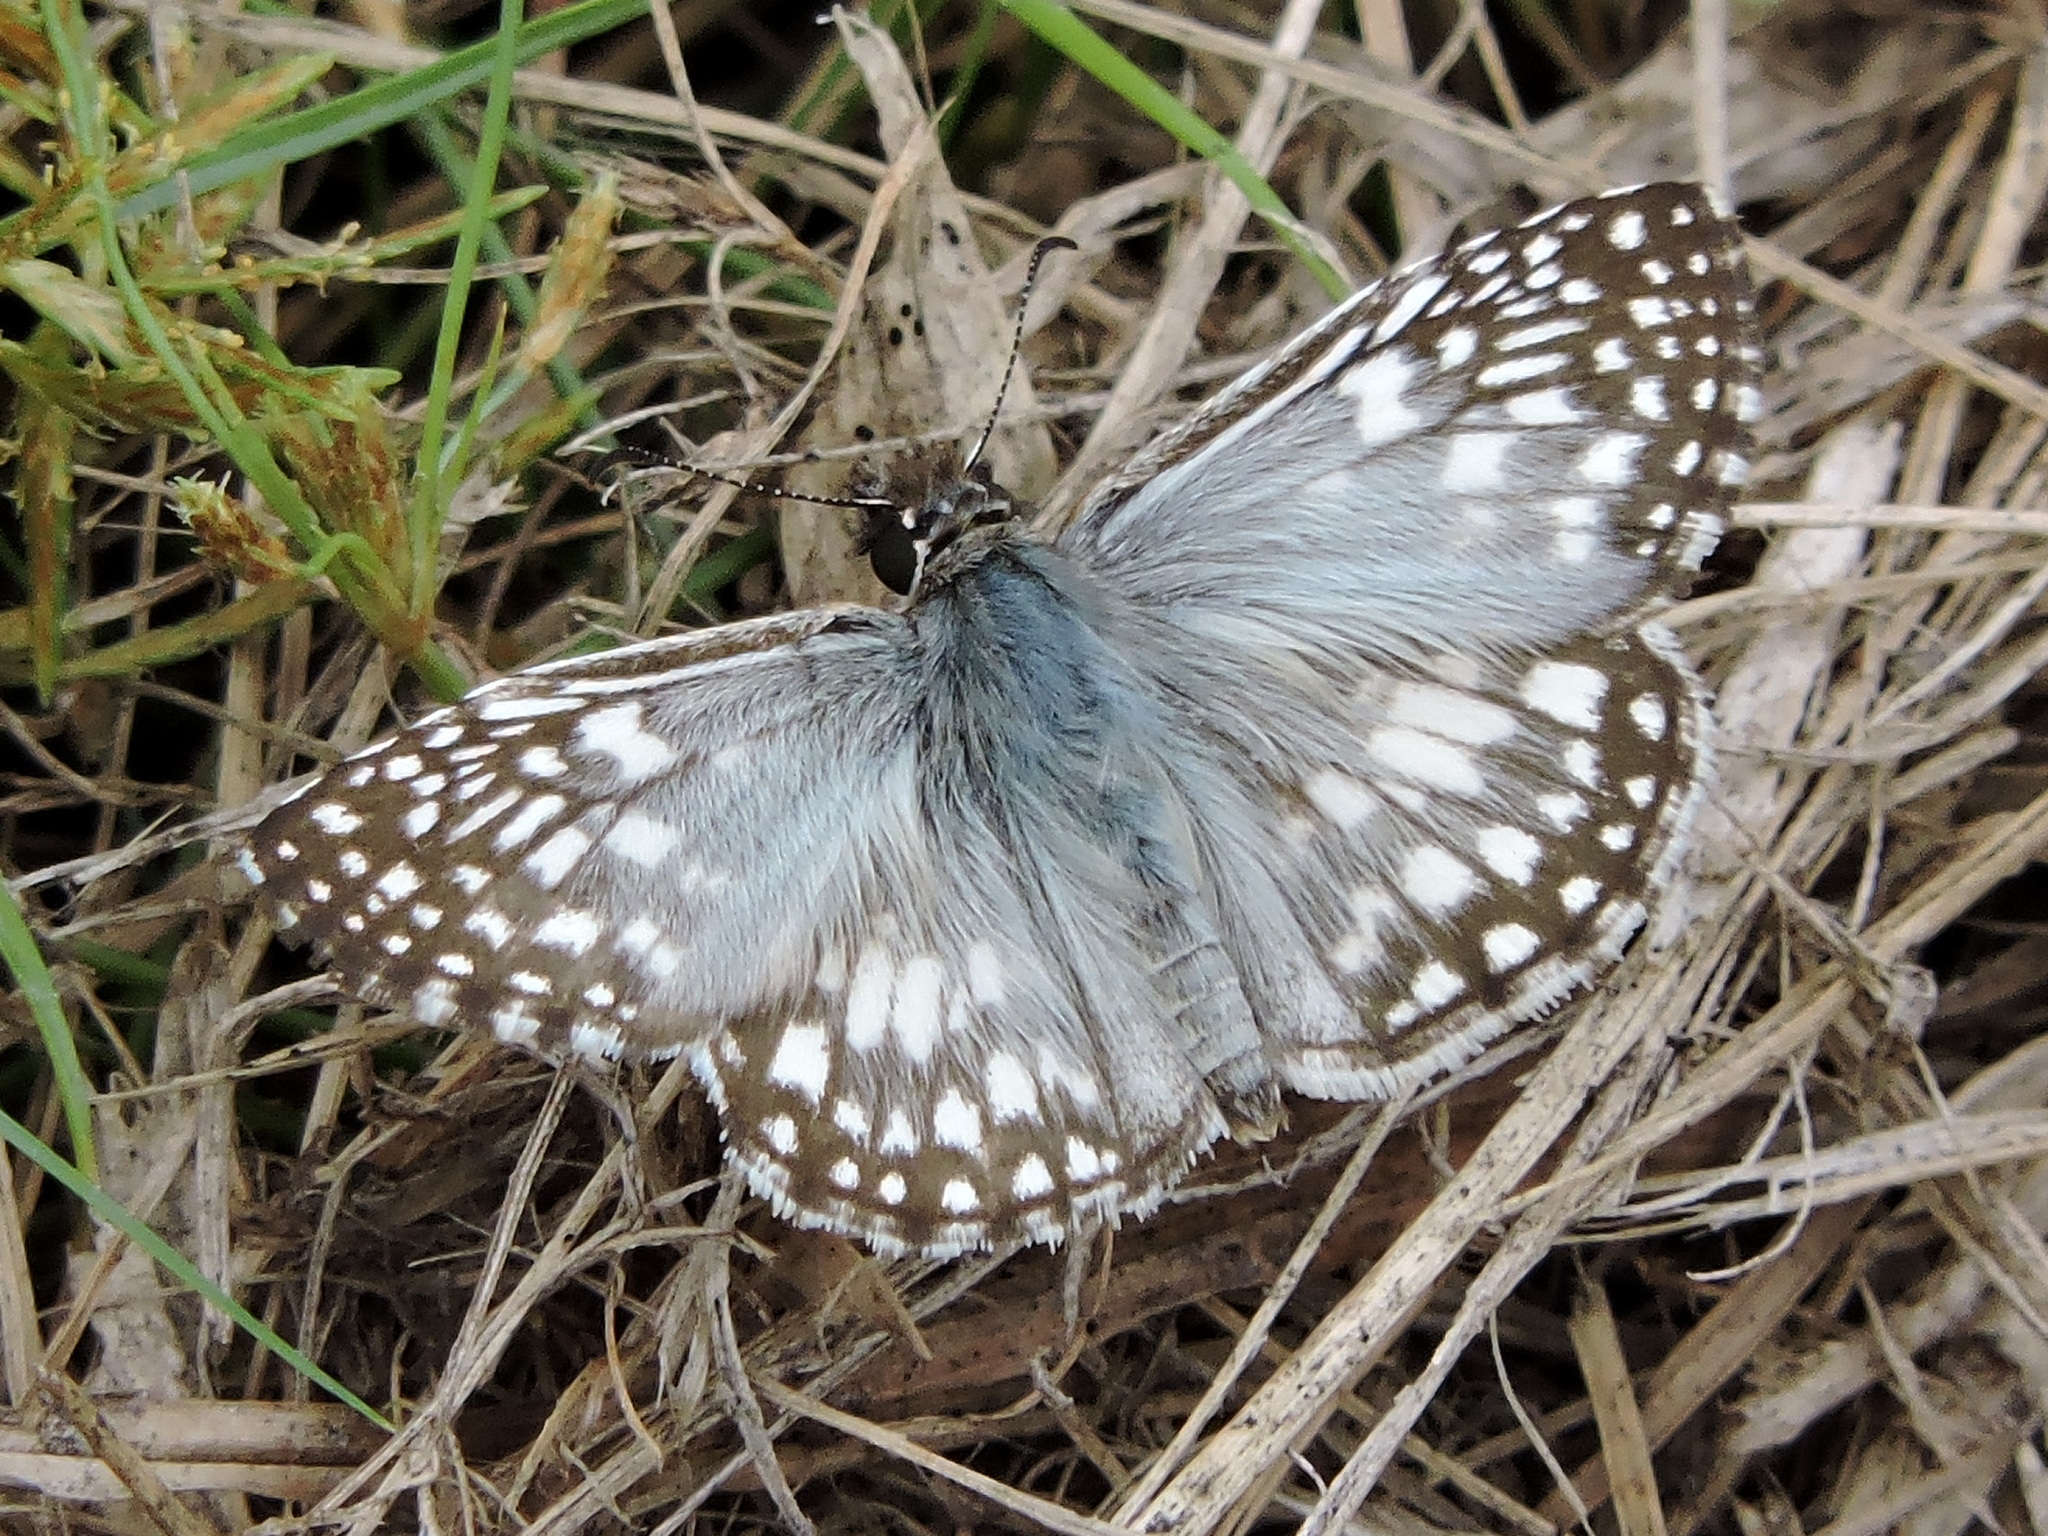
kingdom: Animalia
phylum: Arthropoda
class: Insecta
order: Lepidoptera
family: Hesperiidae
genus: Pyrgus
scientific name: Pyrgus oileus
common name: Tropical checkered-skipper
